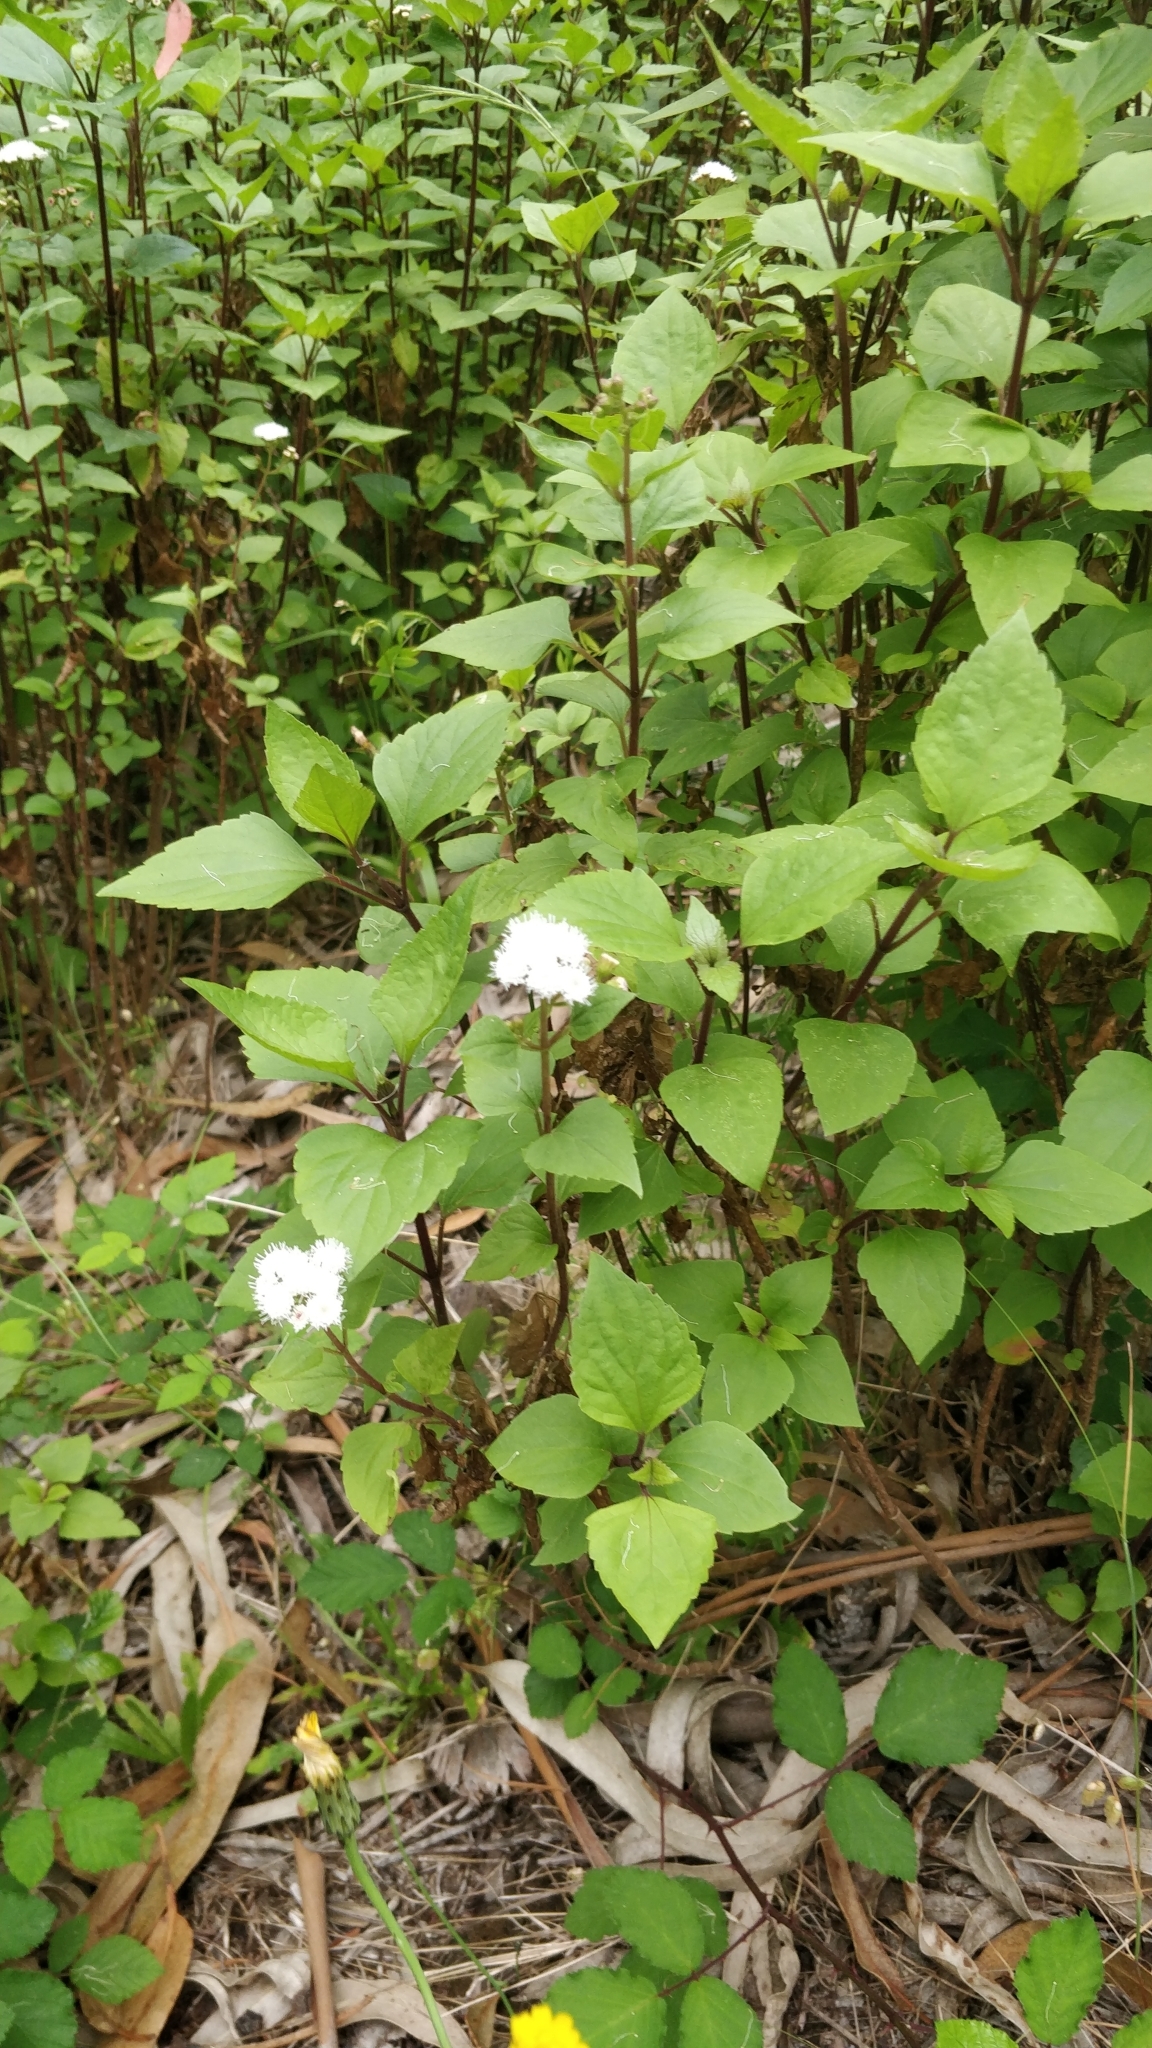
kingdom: Plantae
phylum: Tracheophyta
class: Magnoliopsida
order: Asterales
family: Asteraceae
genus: Ageratina
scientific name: Ageratina adenophora
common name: Sticky snakeroot
